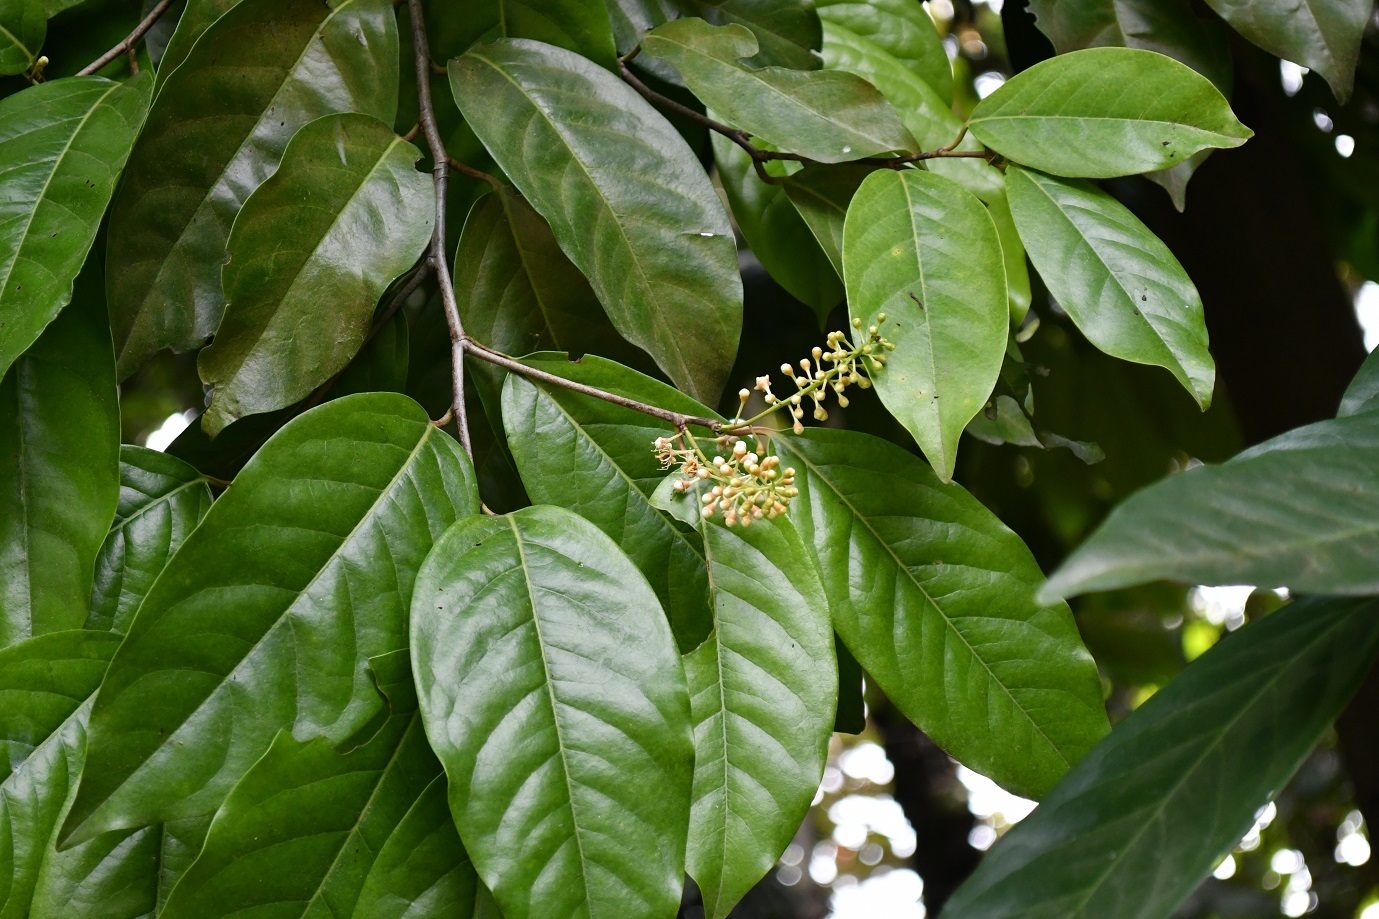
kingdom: Plantae
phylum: Tracheophyta
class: Magnoliopsida
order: Rosales
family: Rosaceae
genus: Prunus
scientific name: Prunus tetradenia
